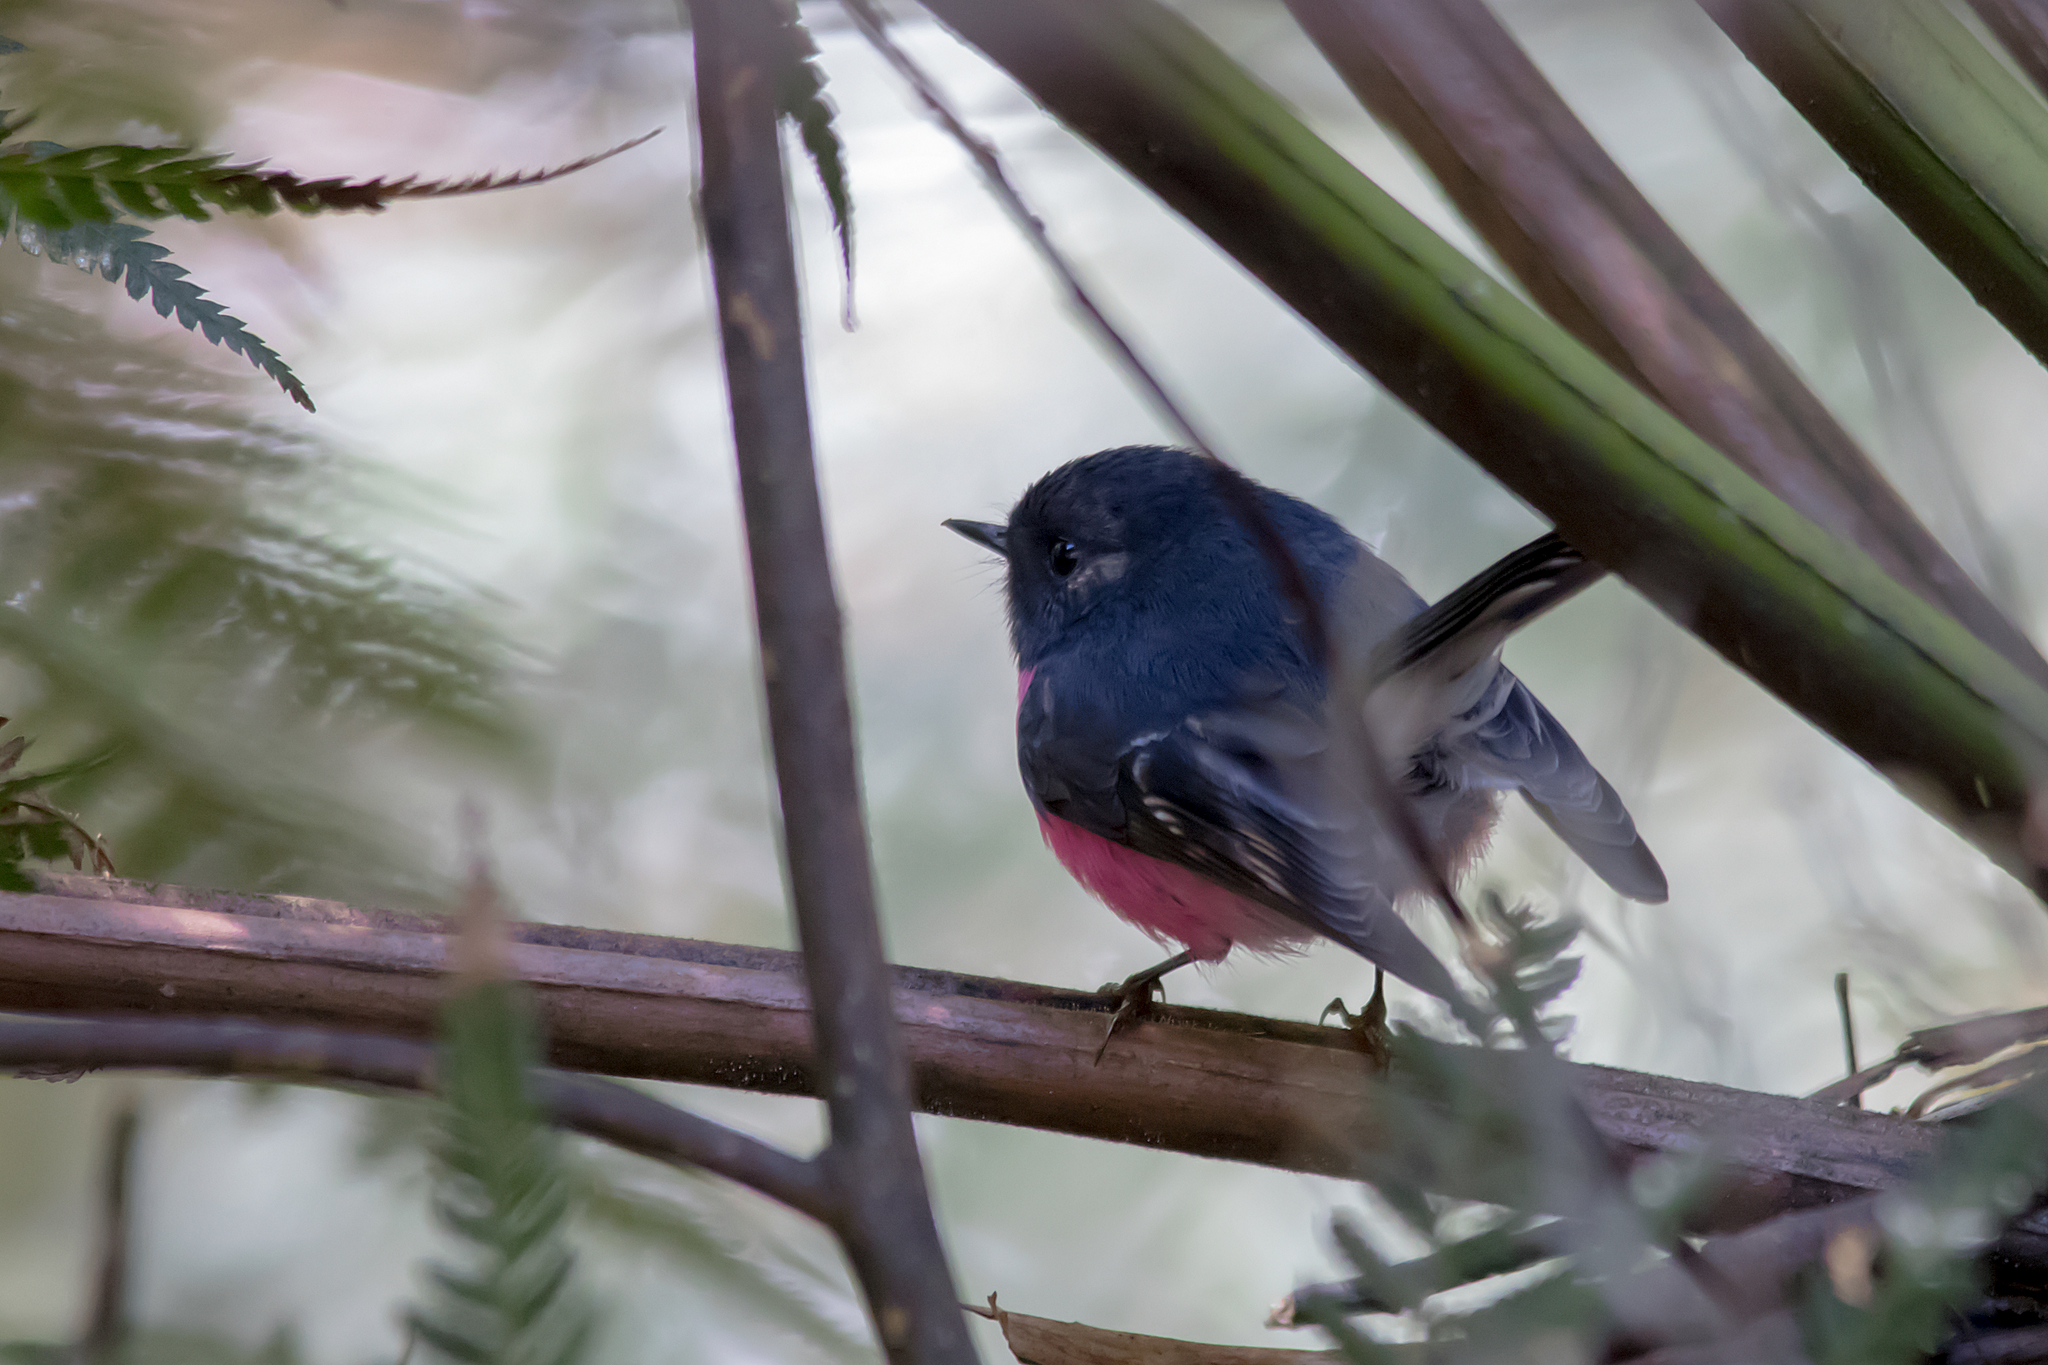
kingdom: Animalia
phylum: Chordata
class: Aves
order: Passeriformes
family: Petroicidae
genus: Petroica
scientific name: Petroica rodinogaster
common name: Pink robin
